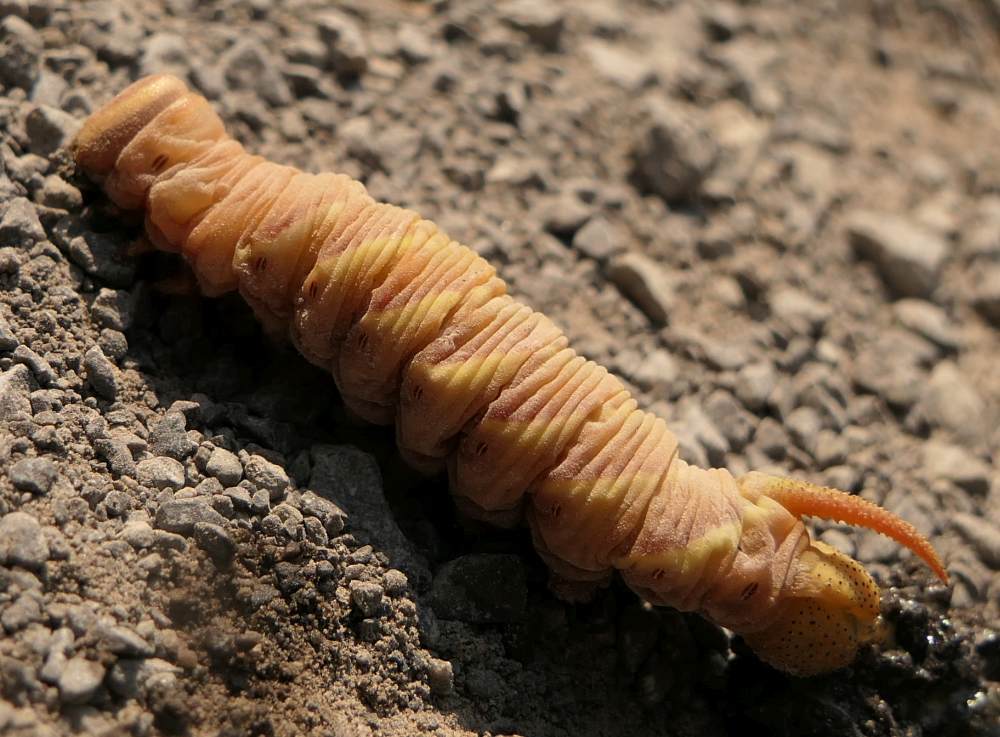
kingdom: Animalia
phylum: Arthropoda
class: Insecta
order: Lepidoptera
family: Sphingidae
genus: Ceratomia
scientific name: Ceratomia undulosa
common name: Waved sphinx
